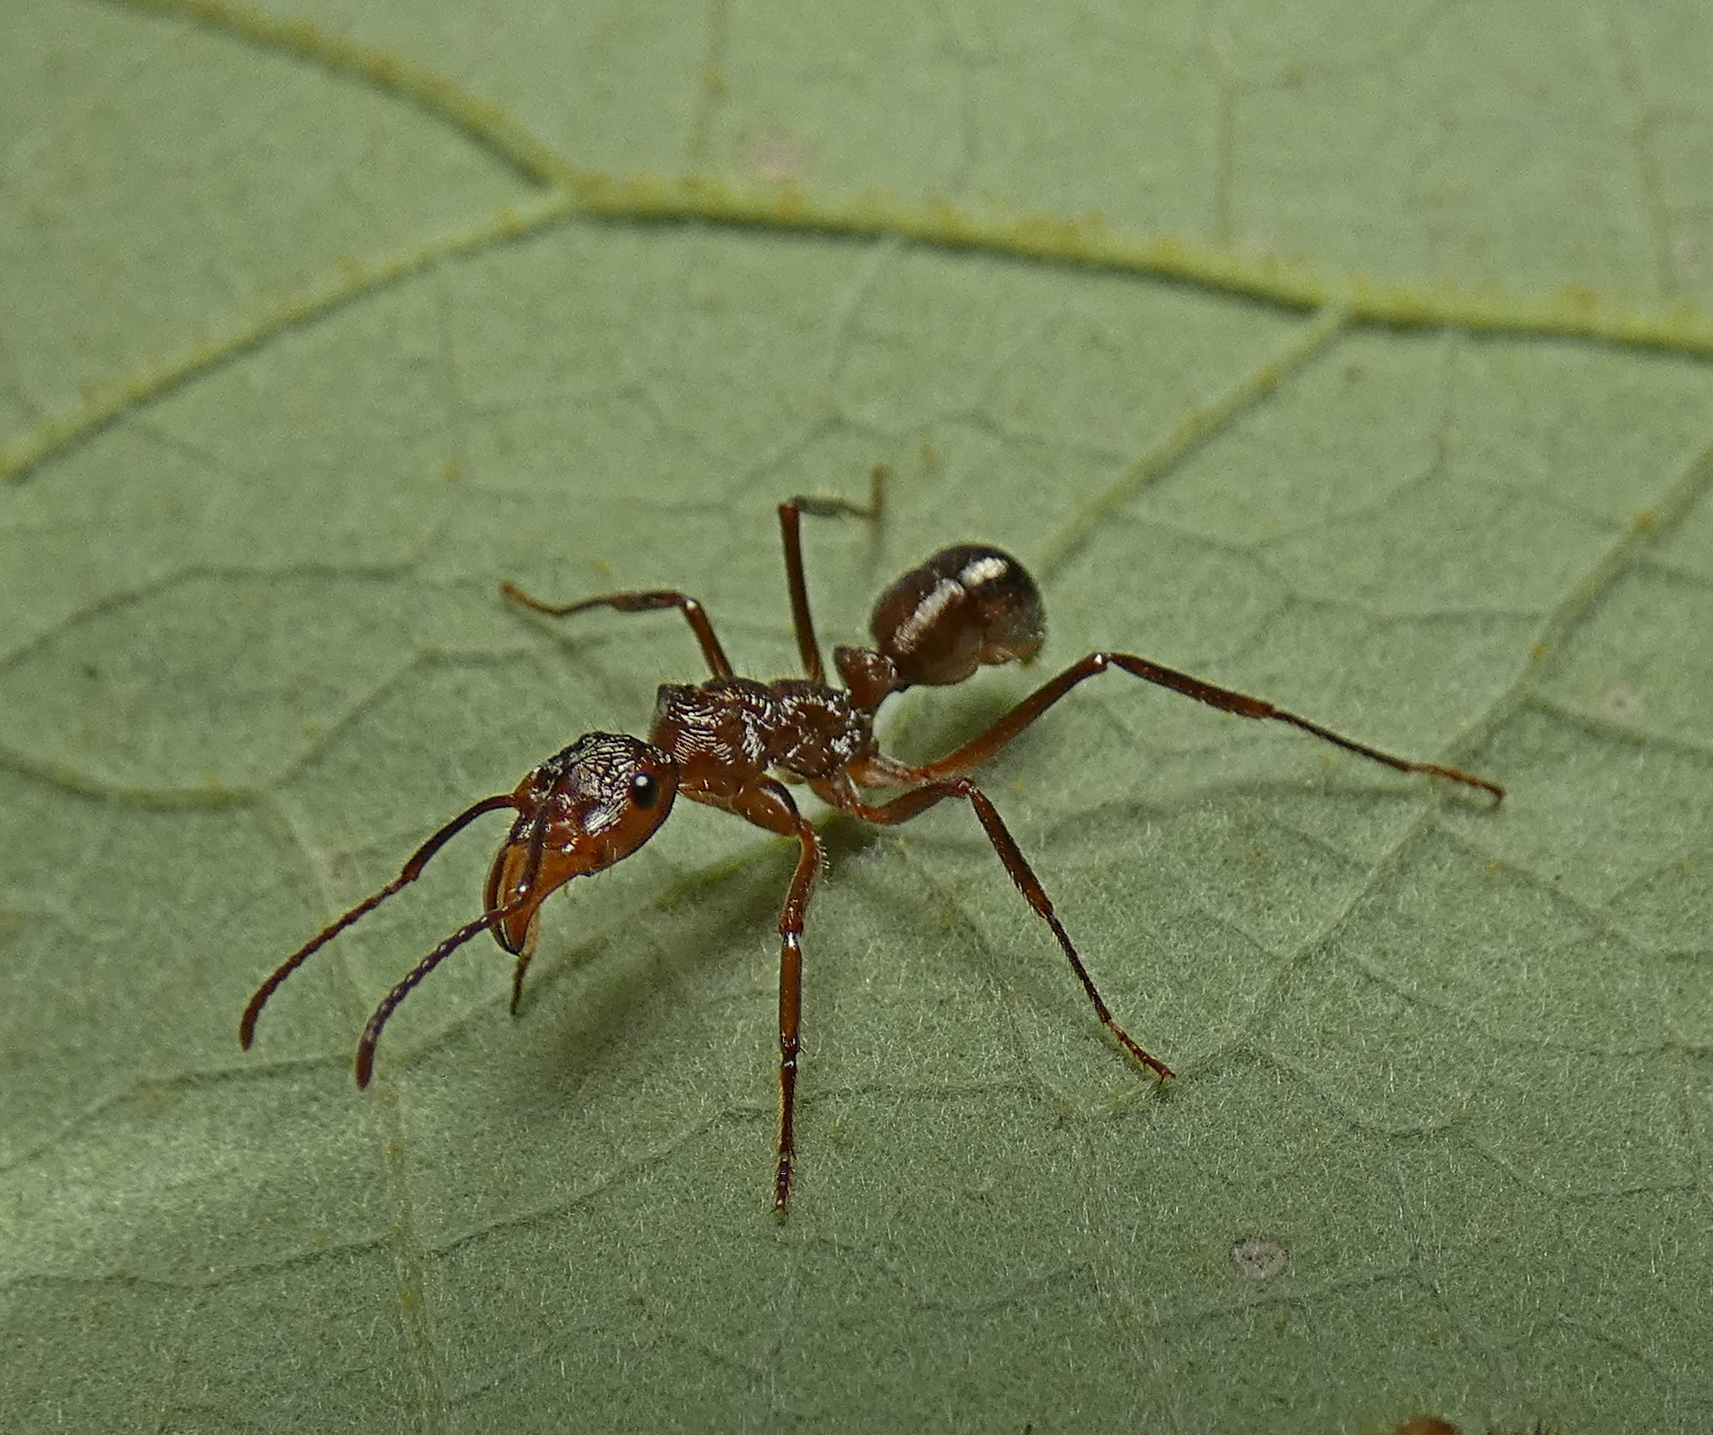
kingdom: Animalia
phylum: Arthropoda
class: Insecta
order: Hymenoptera
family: Formicidae
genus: Ectatomma
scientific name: Ectatomma tuberculatum
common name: Ant
